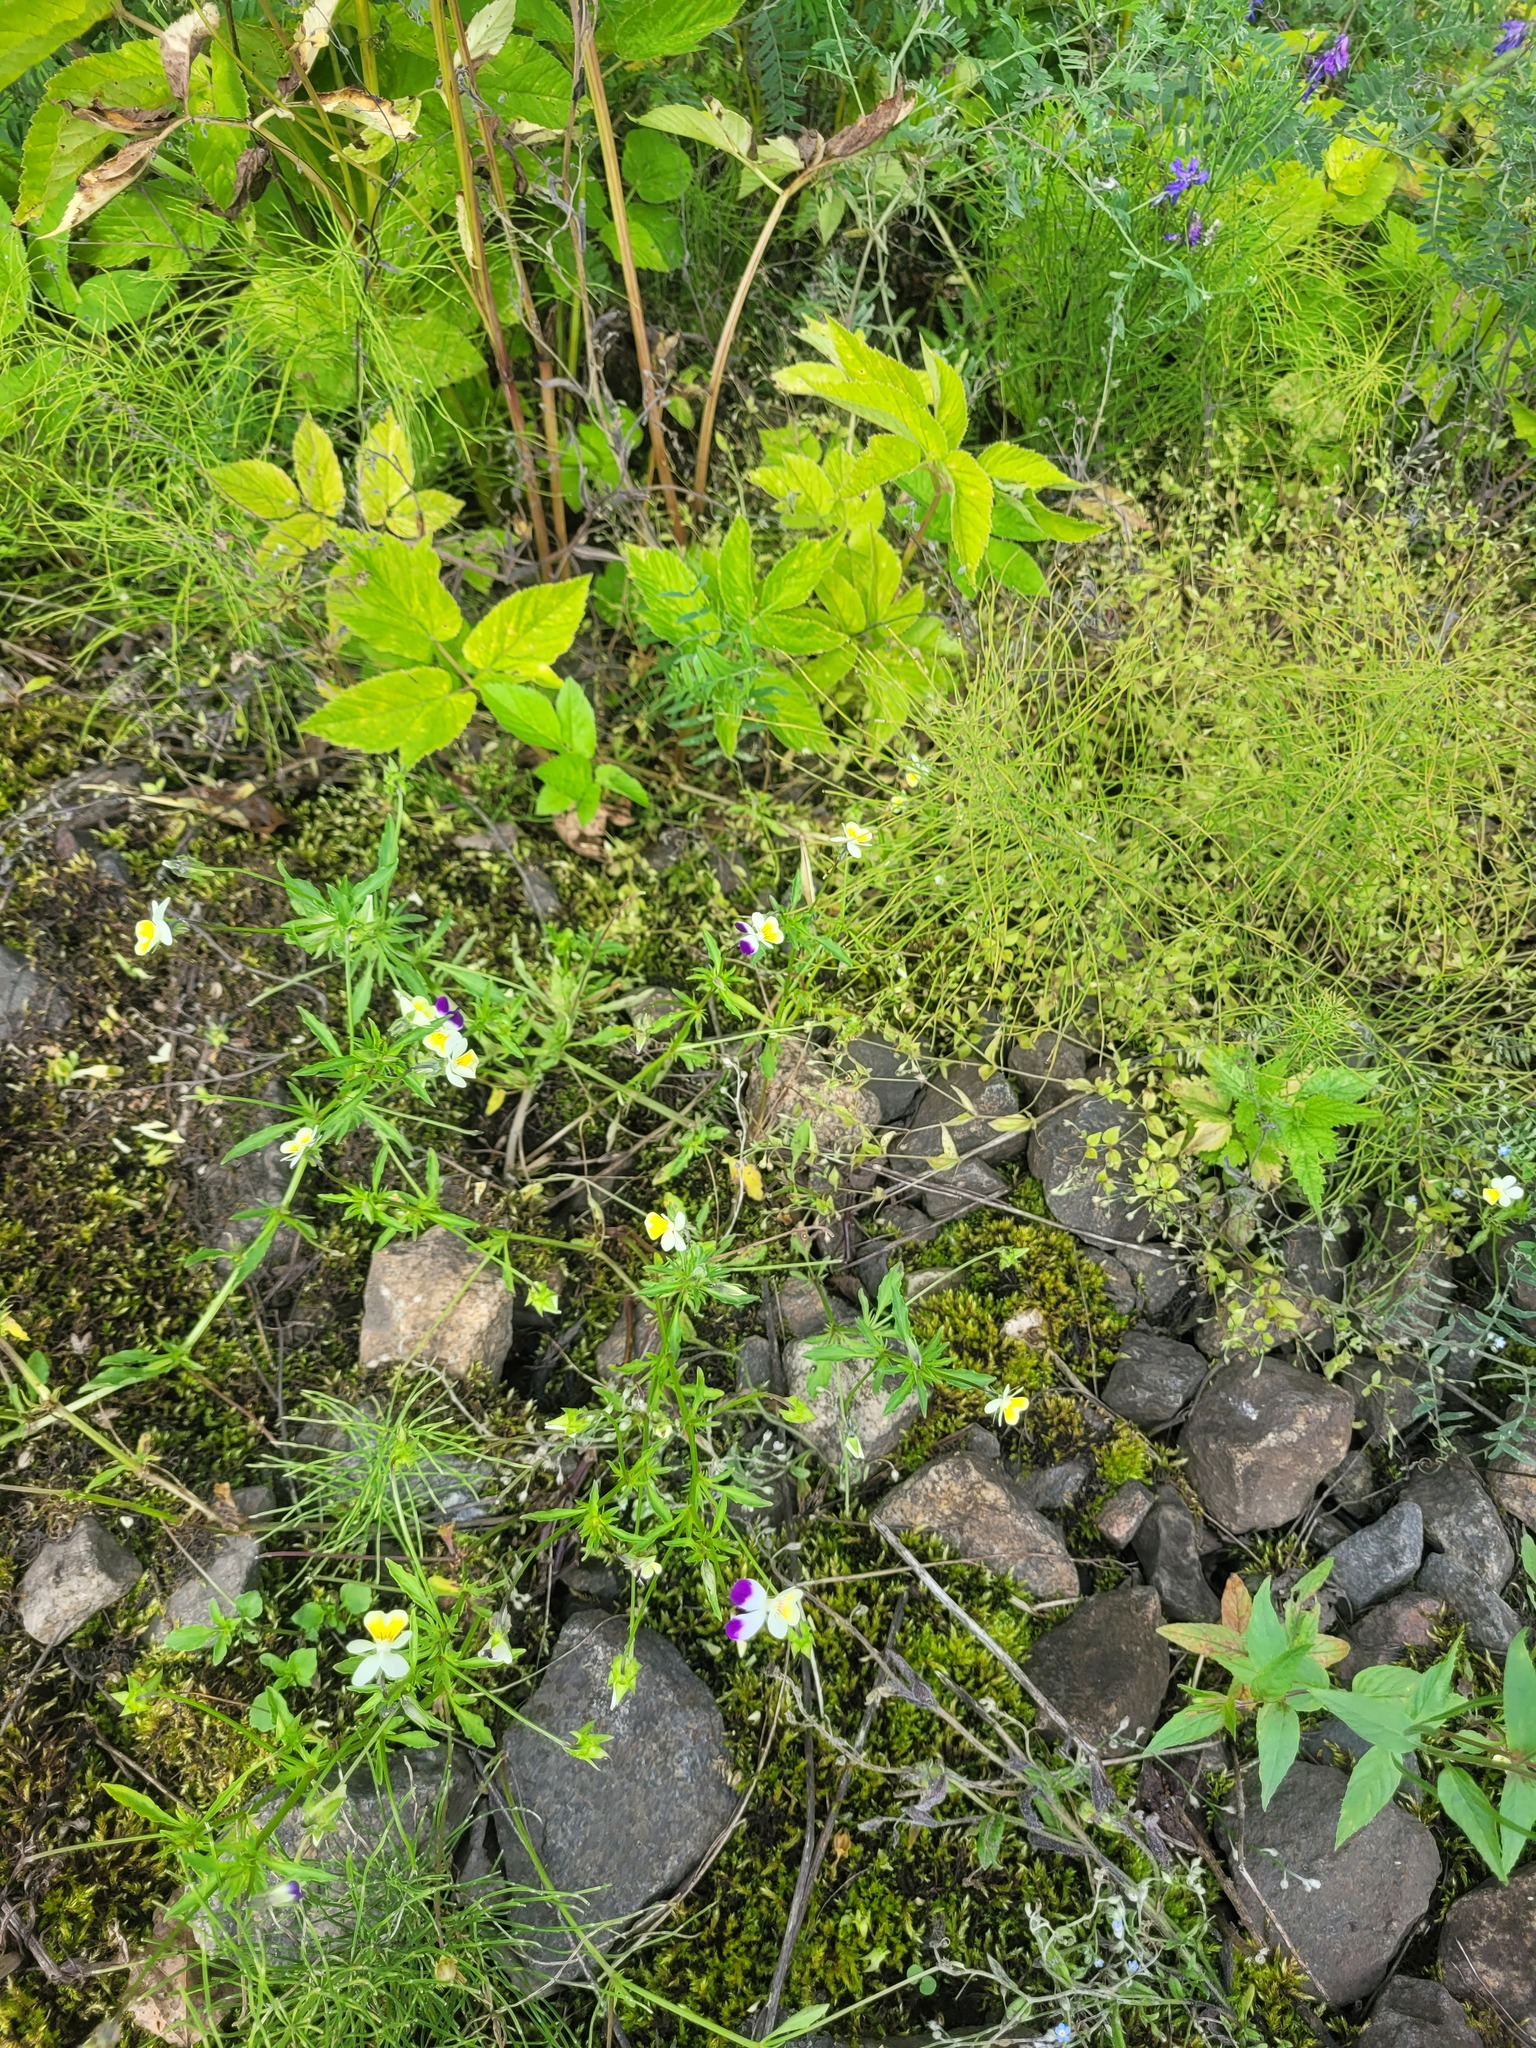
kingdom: Plantae
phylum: Tracheophyta
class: Magnoliopsida
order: Malpighiales
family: Violaceae
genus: Viola
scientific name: Viola contempta
